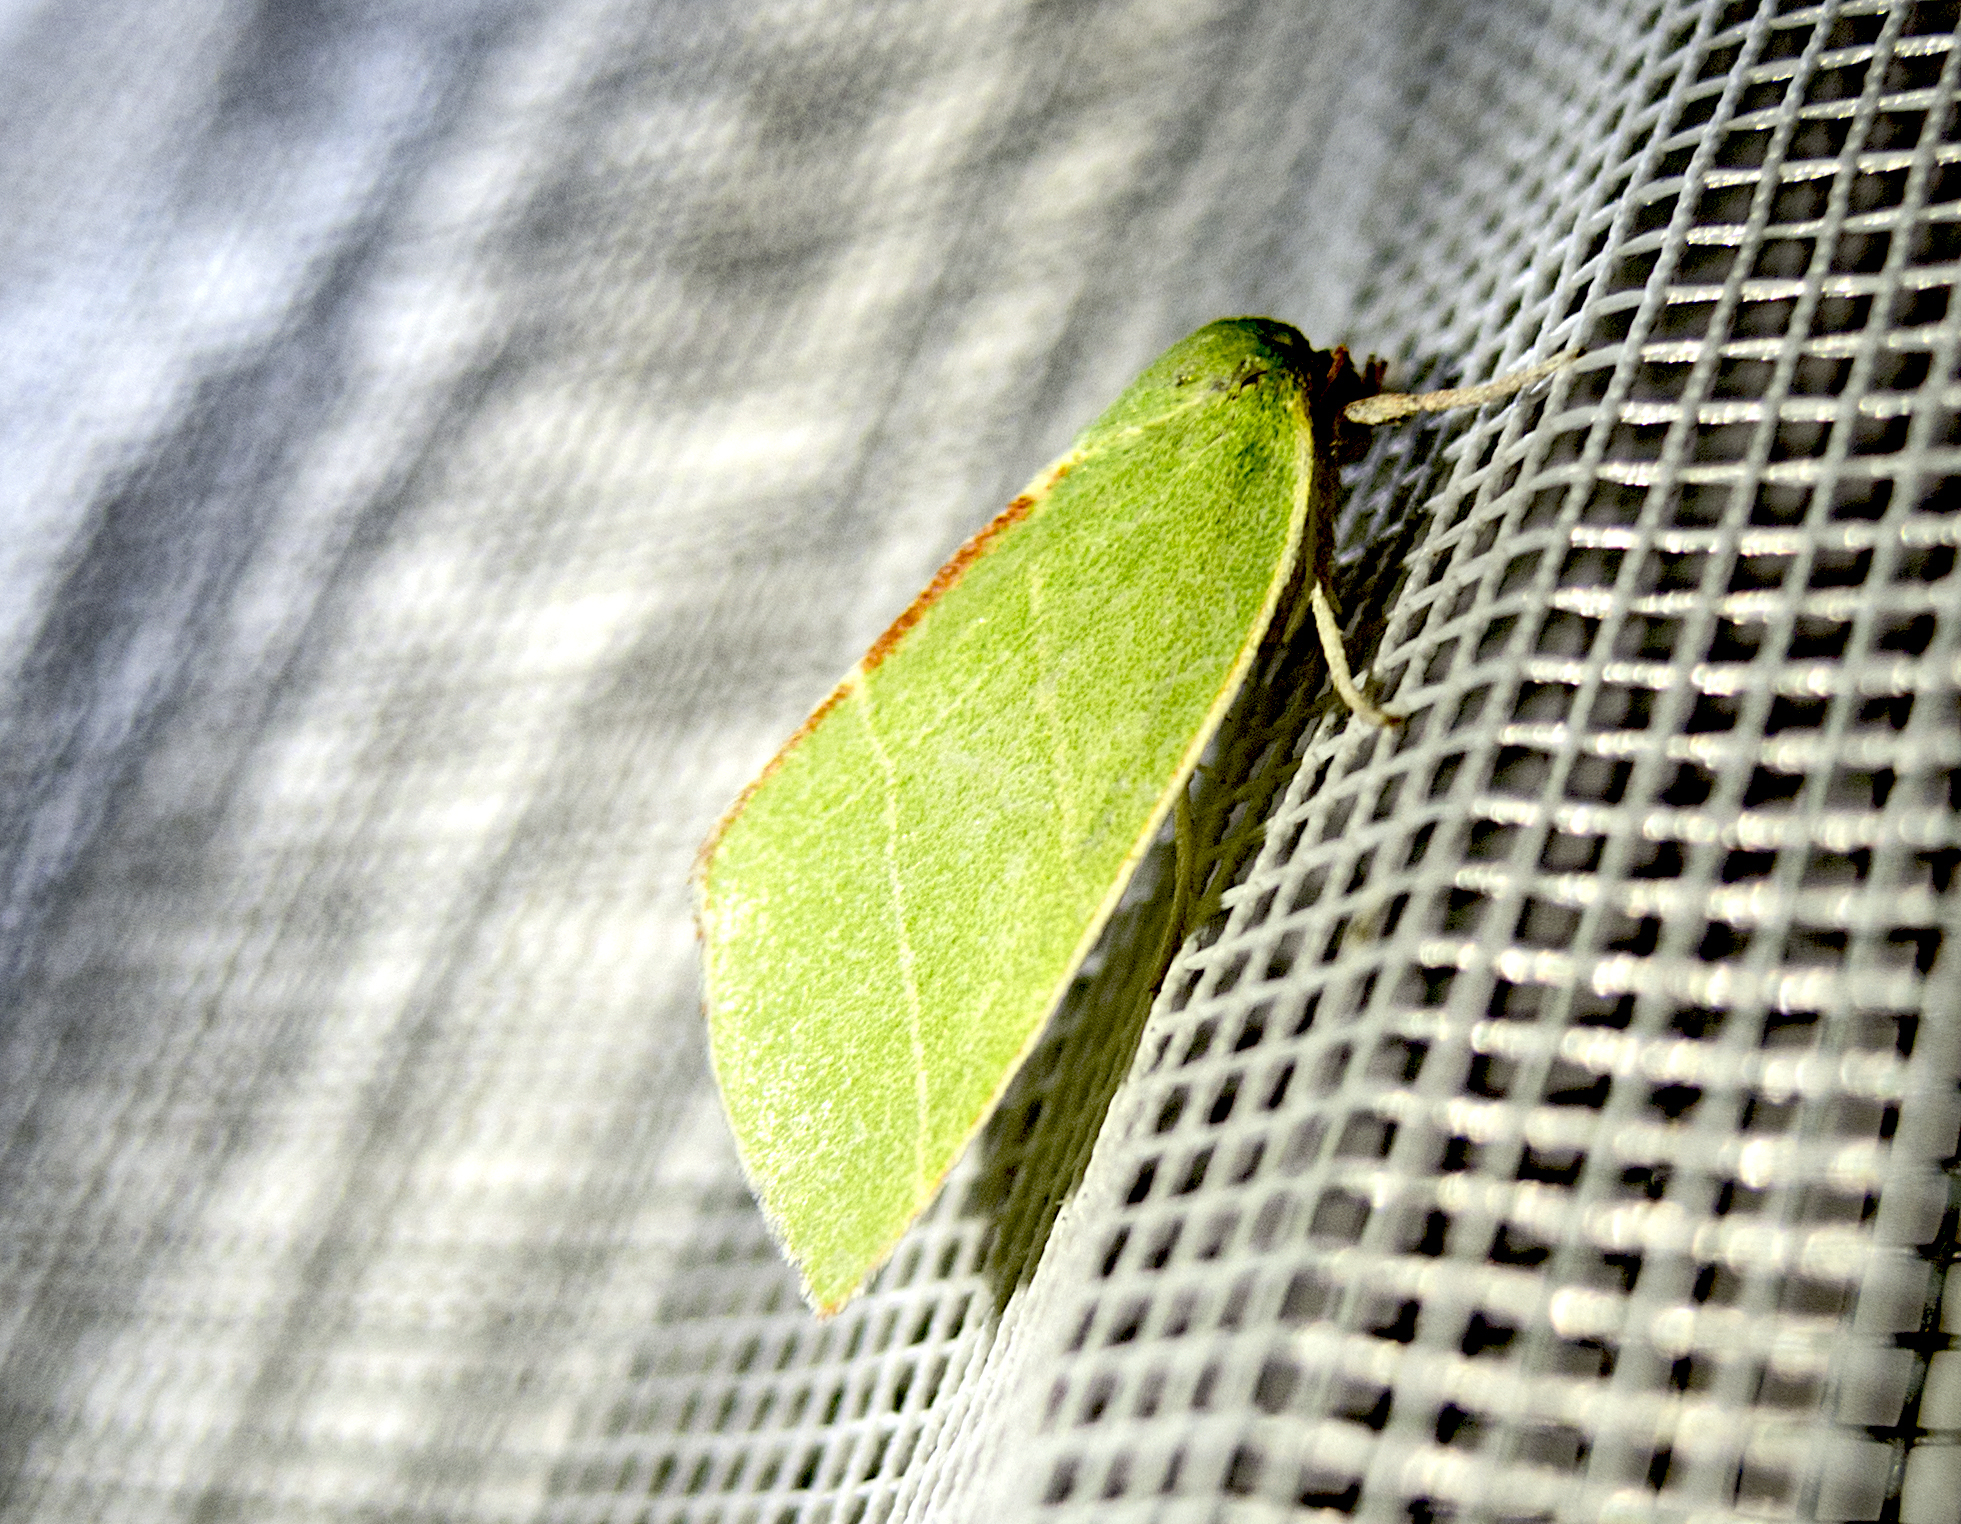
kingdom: Animalia
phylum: Arthropoda
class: Insecta
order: Lepidoptera
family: Nolidae
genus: Bena
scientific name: Bena bicolorana
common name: Scarce silver-lines
